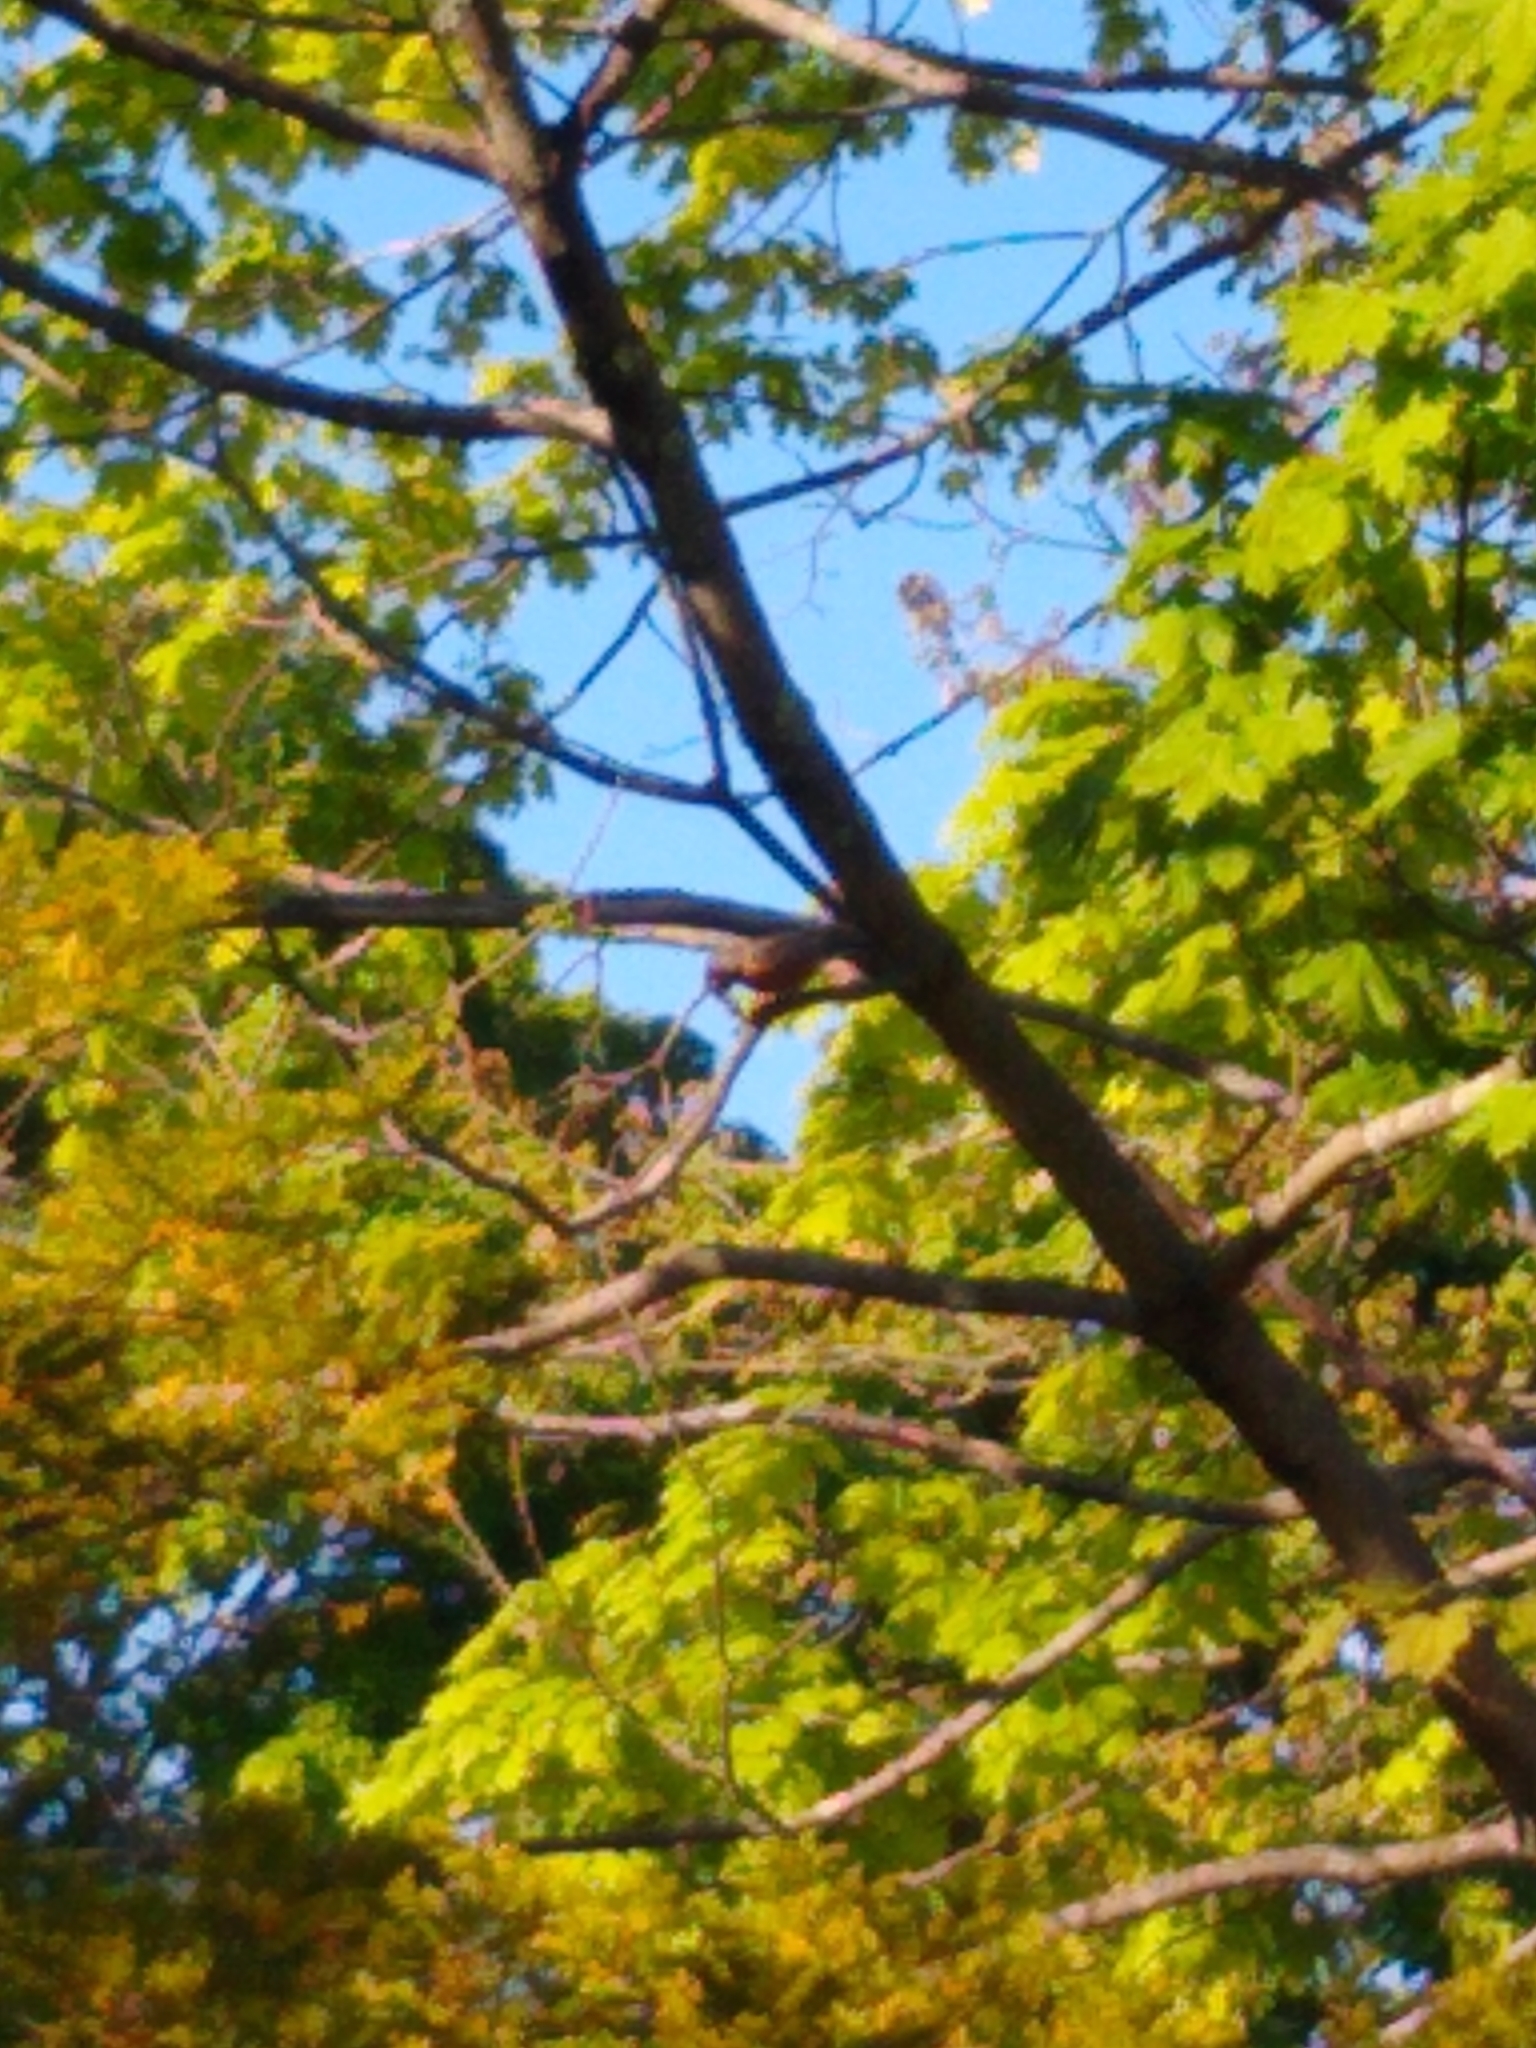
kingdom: Animalia
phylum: Chordata
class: Aves
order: Passeriformes
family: Turdidae
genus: Turdus
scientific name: Turdus migratorius
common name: American robin
